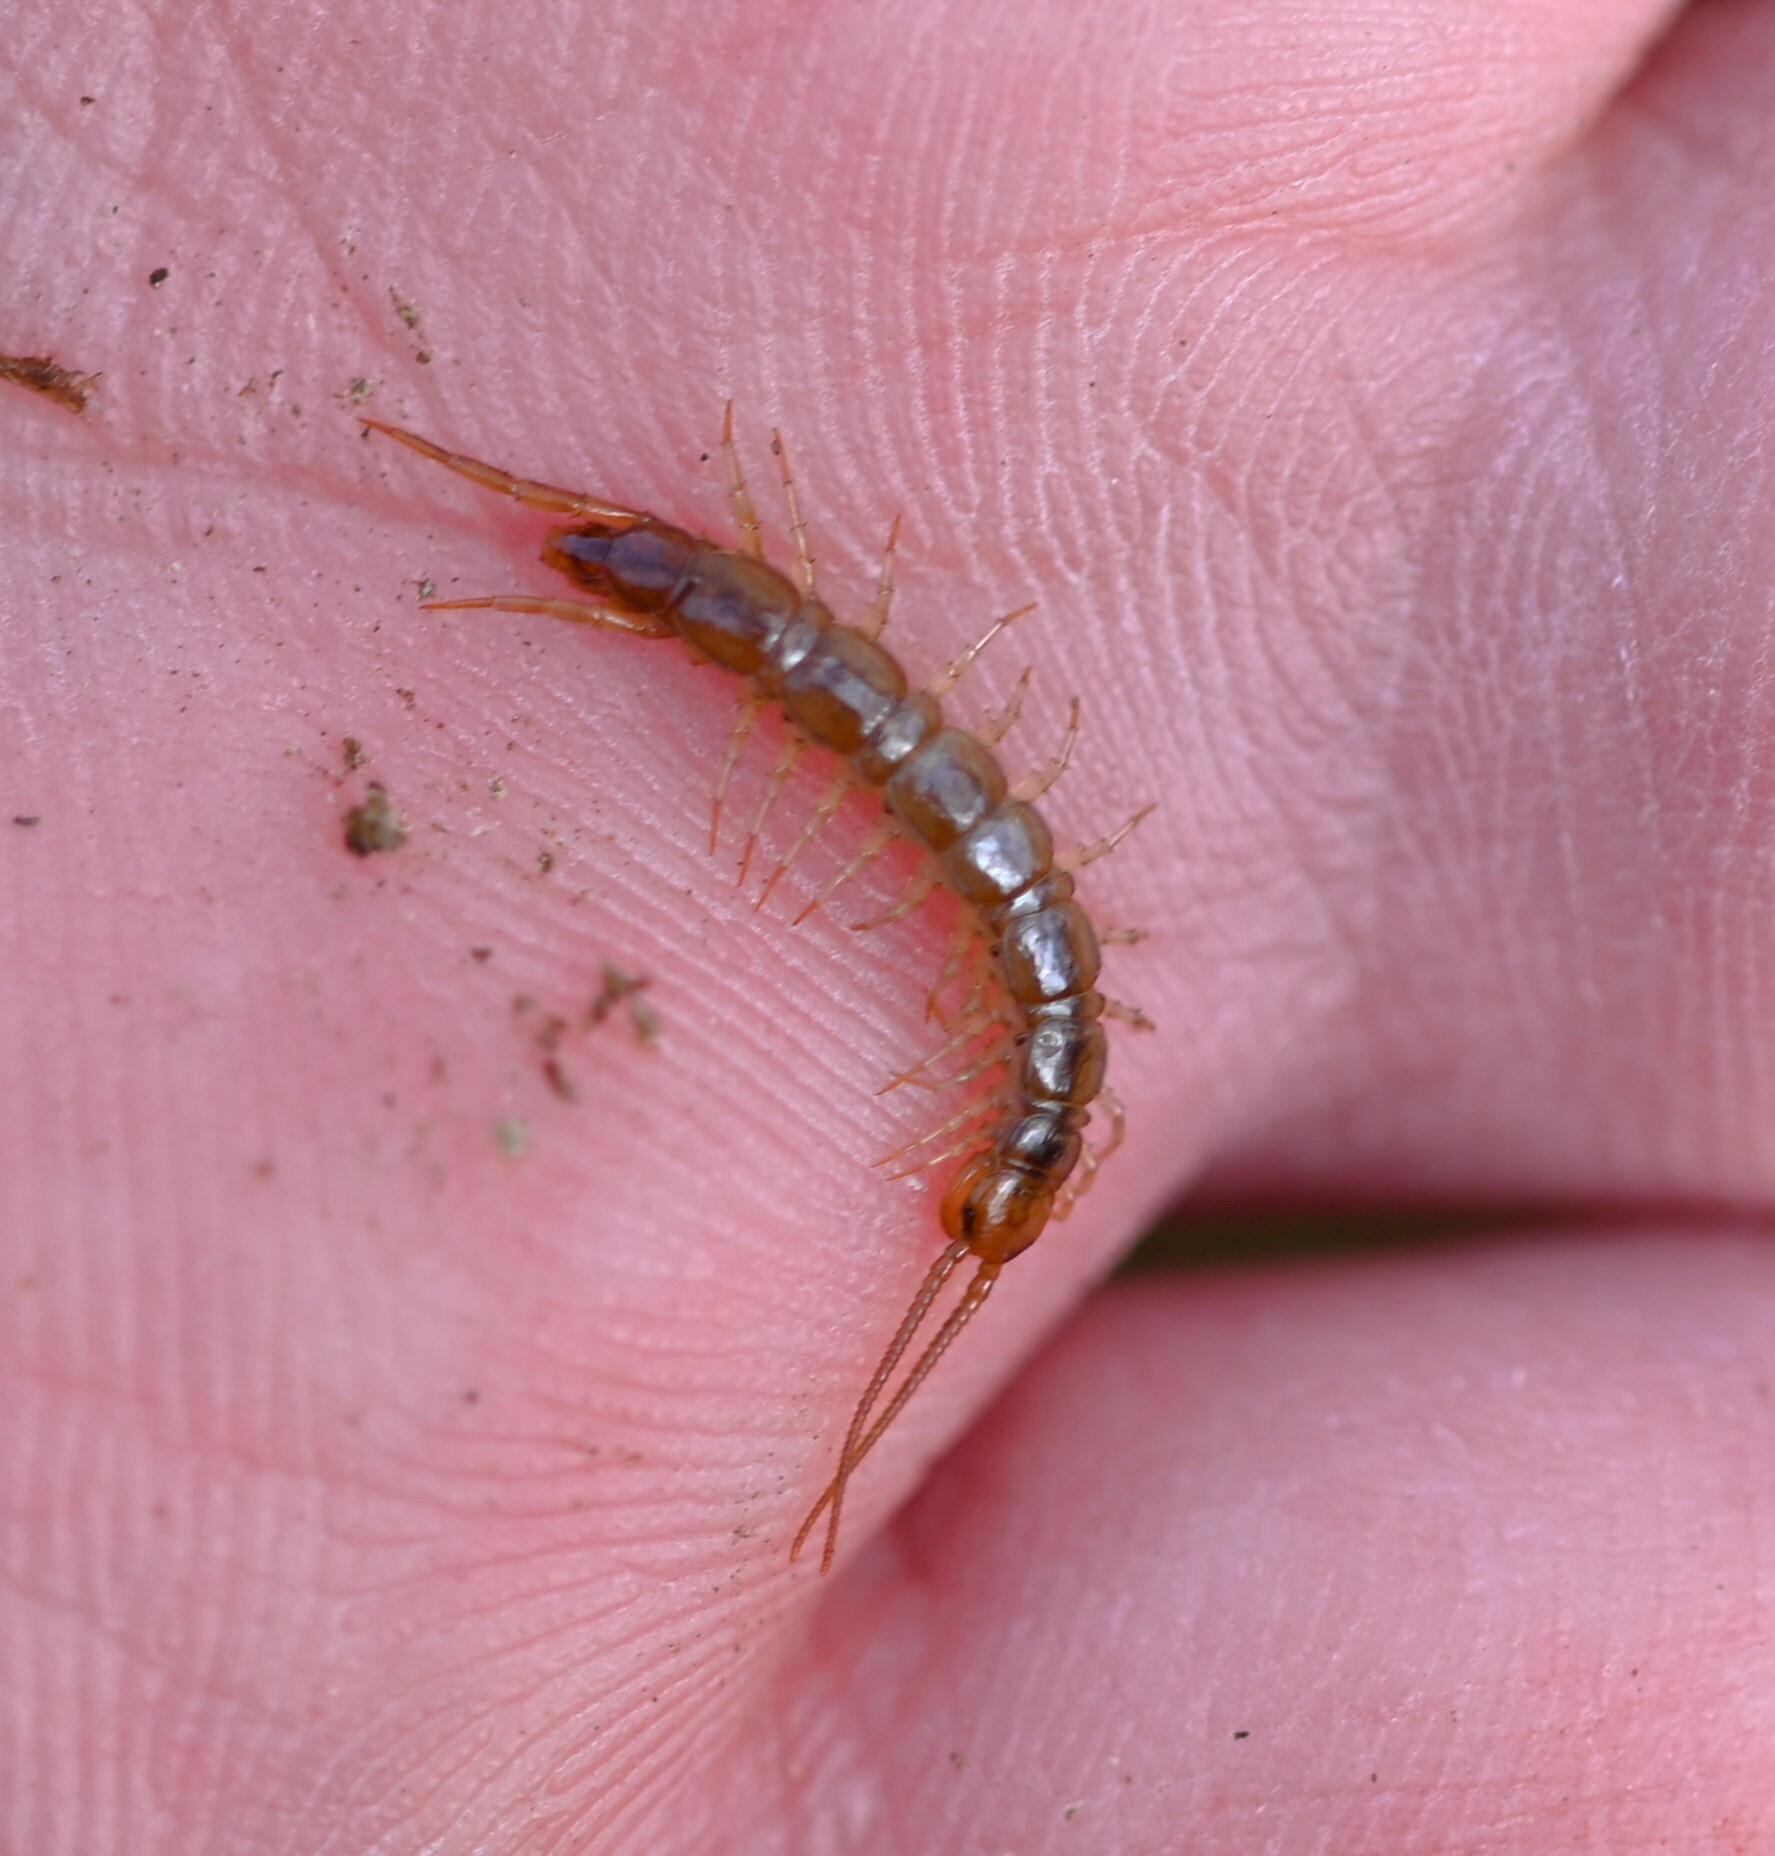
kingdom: Animalia
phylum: Arthropoda
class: Chilopoda
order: Lithobiomorpha
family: Lithobiidae
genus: Lithobius
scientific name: Lithobius melanops
